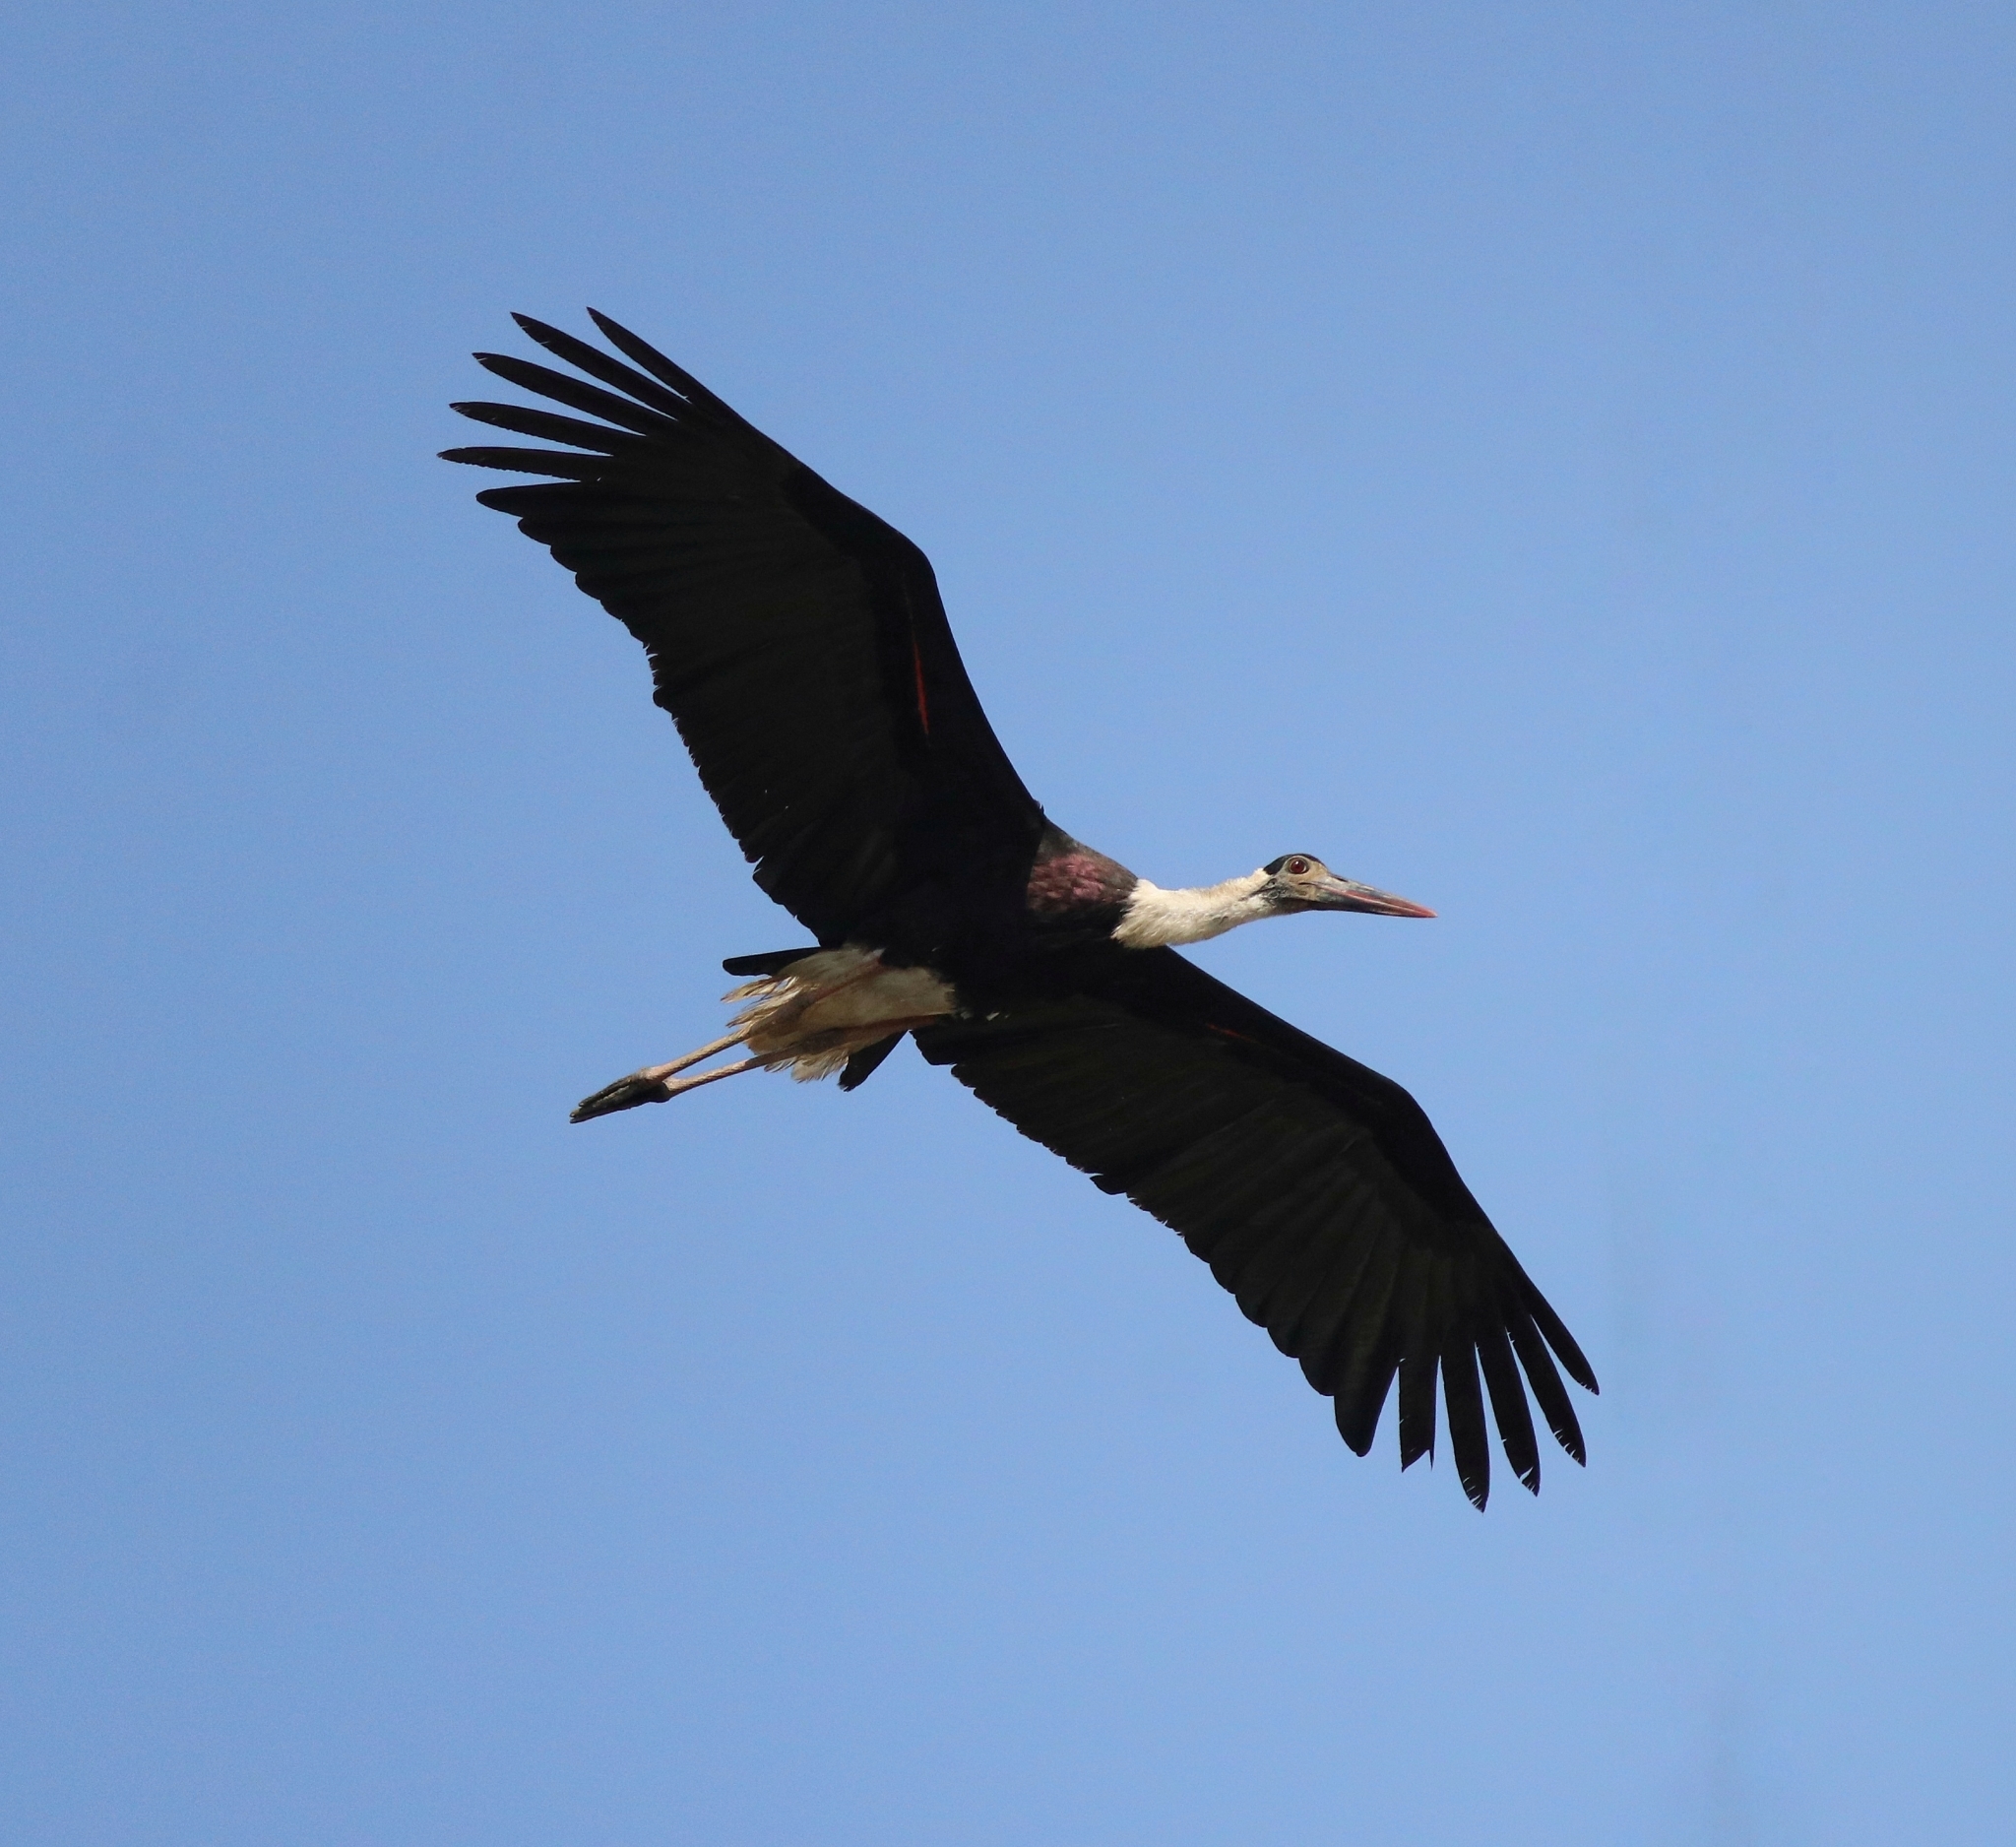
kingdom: Animalia
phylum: Chordata
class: Aves
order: Ciconiiformes
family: Ciconiidae
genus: Ciconia
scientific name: Ciconia episcopus
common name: Woolly-necked stork
